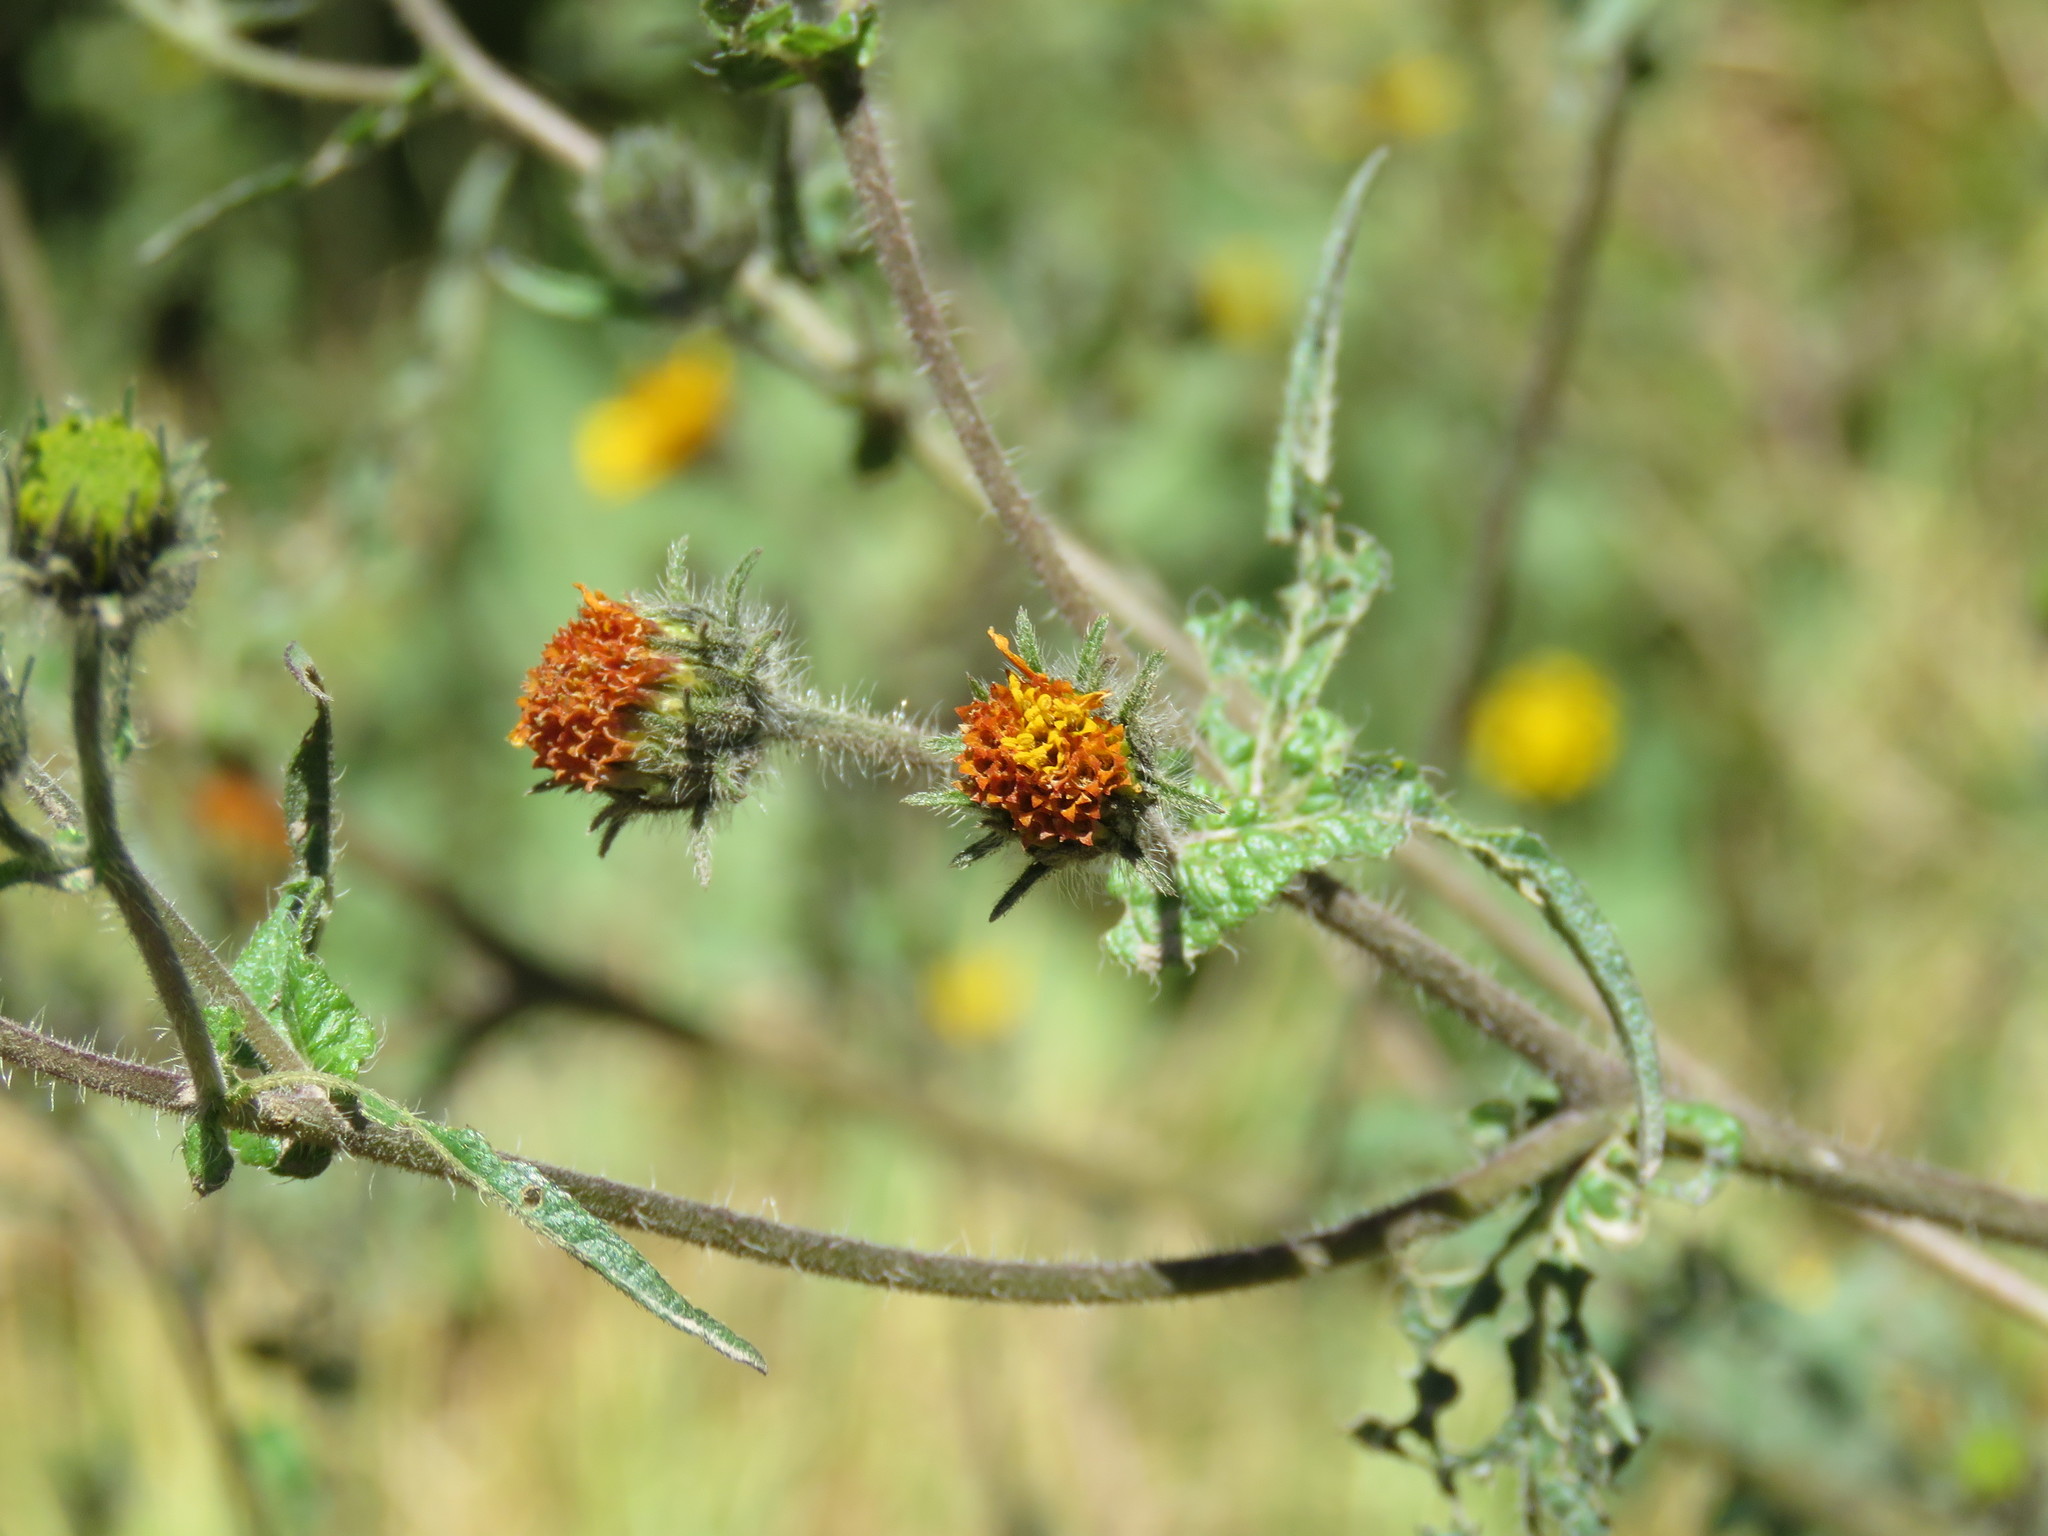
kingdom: Plantae
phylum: Tracheophyta
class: Magnoliopsida
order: Asterales
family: Asteraceae
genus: Simsia
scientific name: Simsia amplexicaulis
